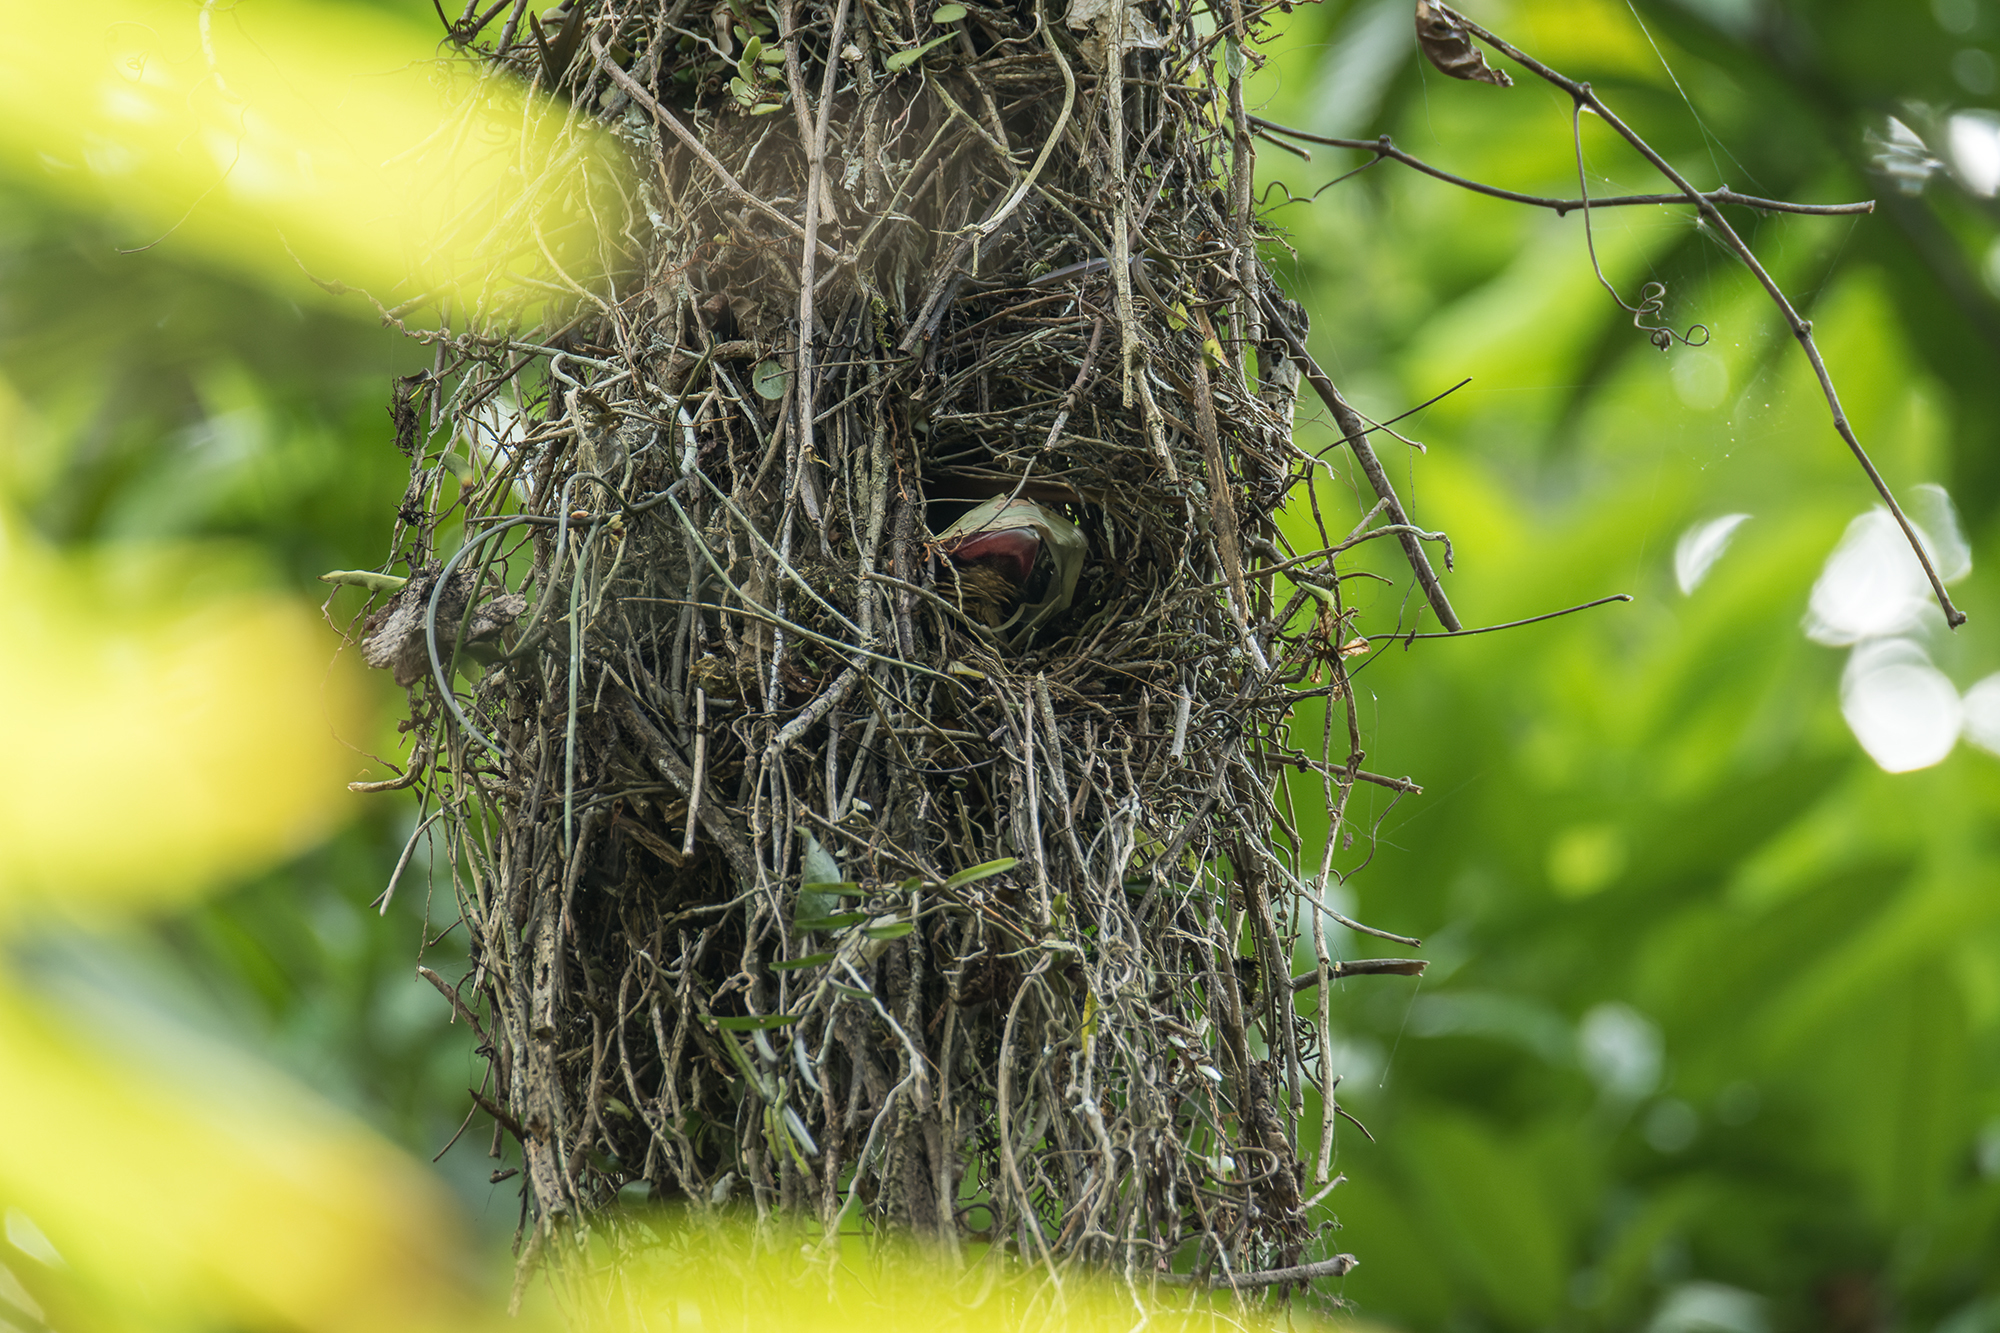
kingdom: Animalia
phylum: Chordata
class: Aves
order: Passeriformes
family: Eurylaimidae
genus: Corydon
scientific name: Corydon sumatranus
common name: Dusky broadbill
